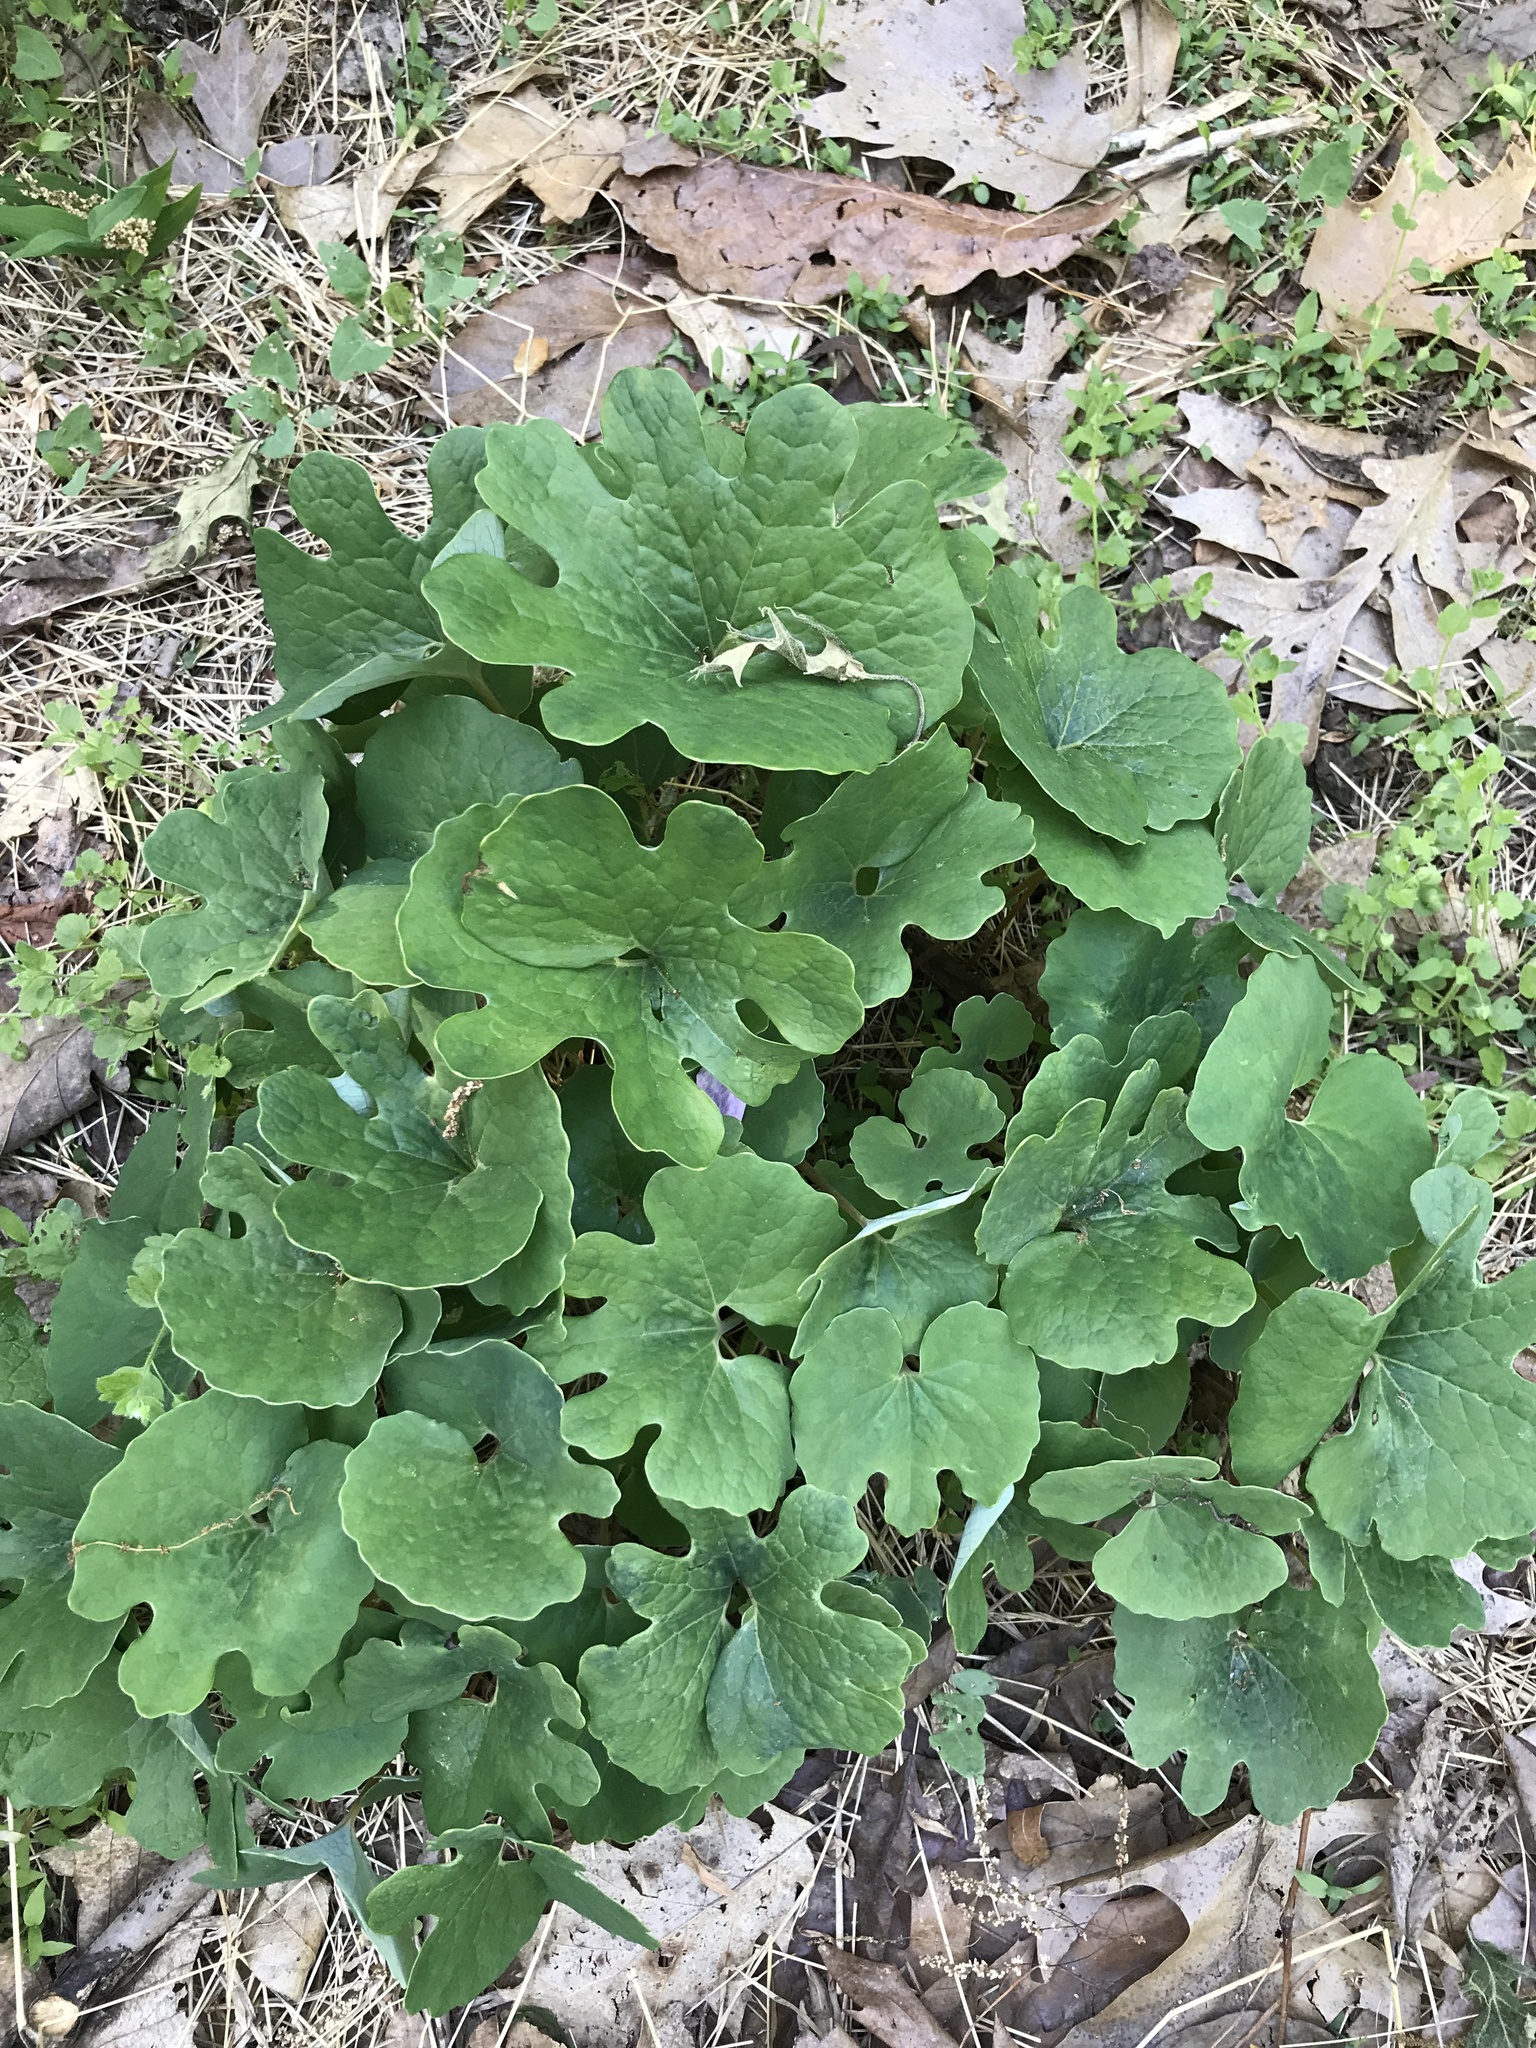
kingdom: Plantae
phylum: Tracheophyta
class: Magnoliopsida
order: Ranunculales
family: Papaveraceae
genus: Sanguinaria
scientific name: Sanguinaria canadensis
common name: Bloodroot
